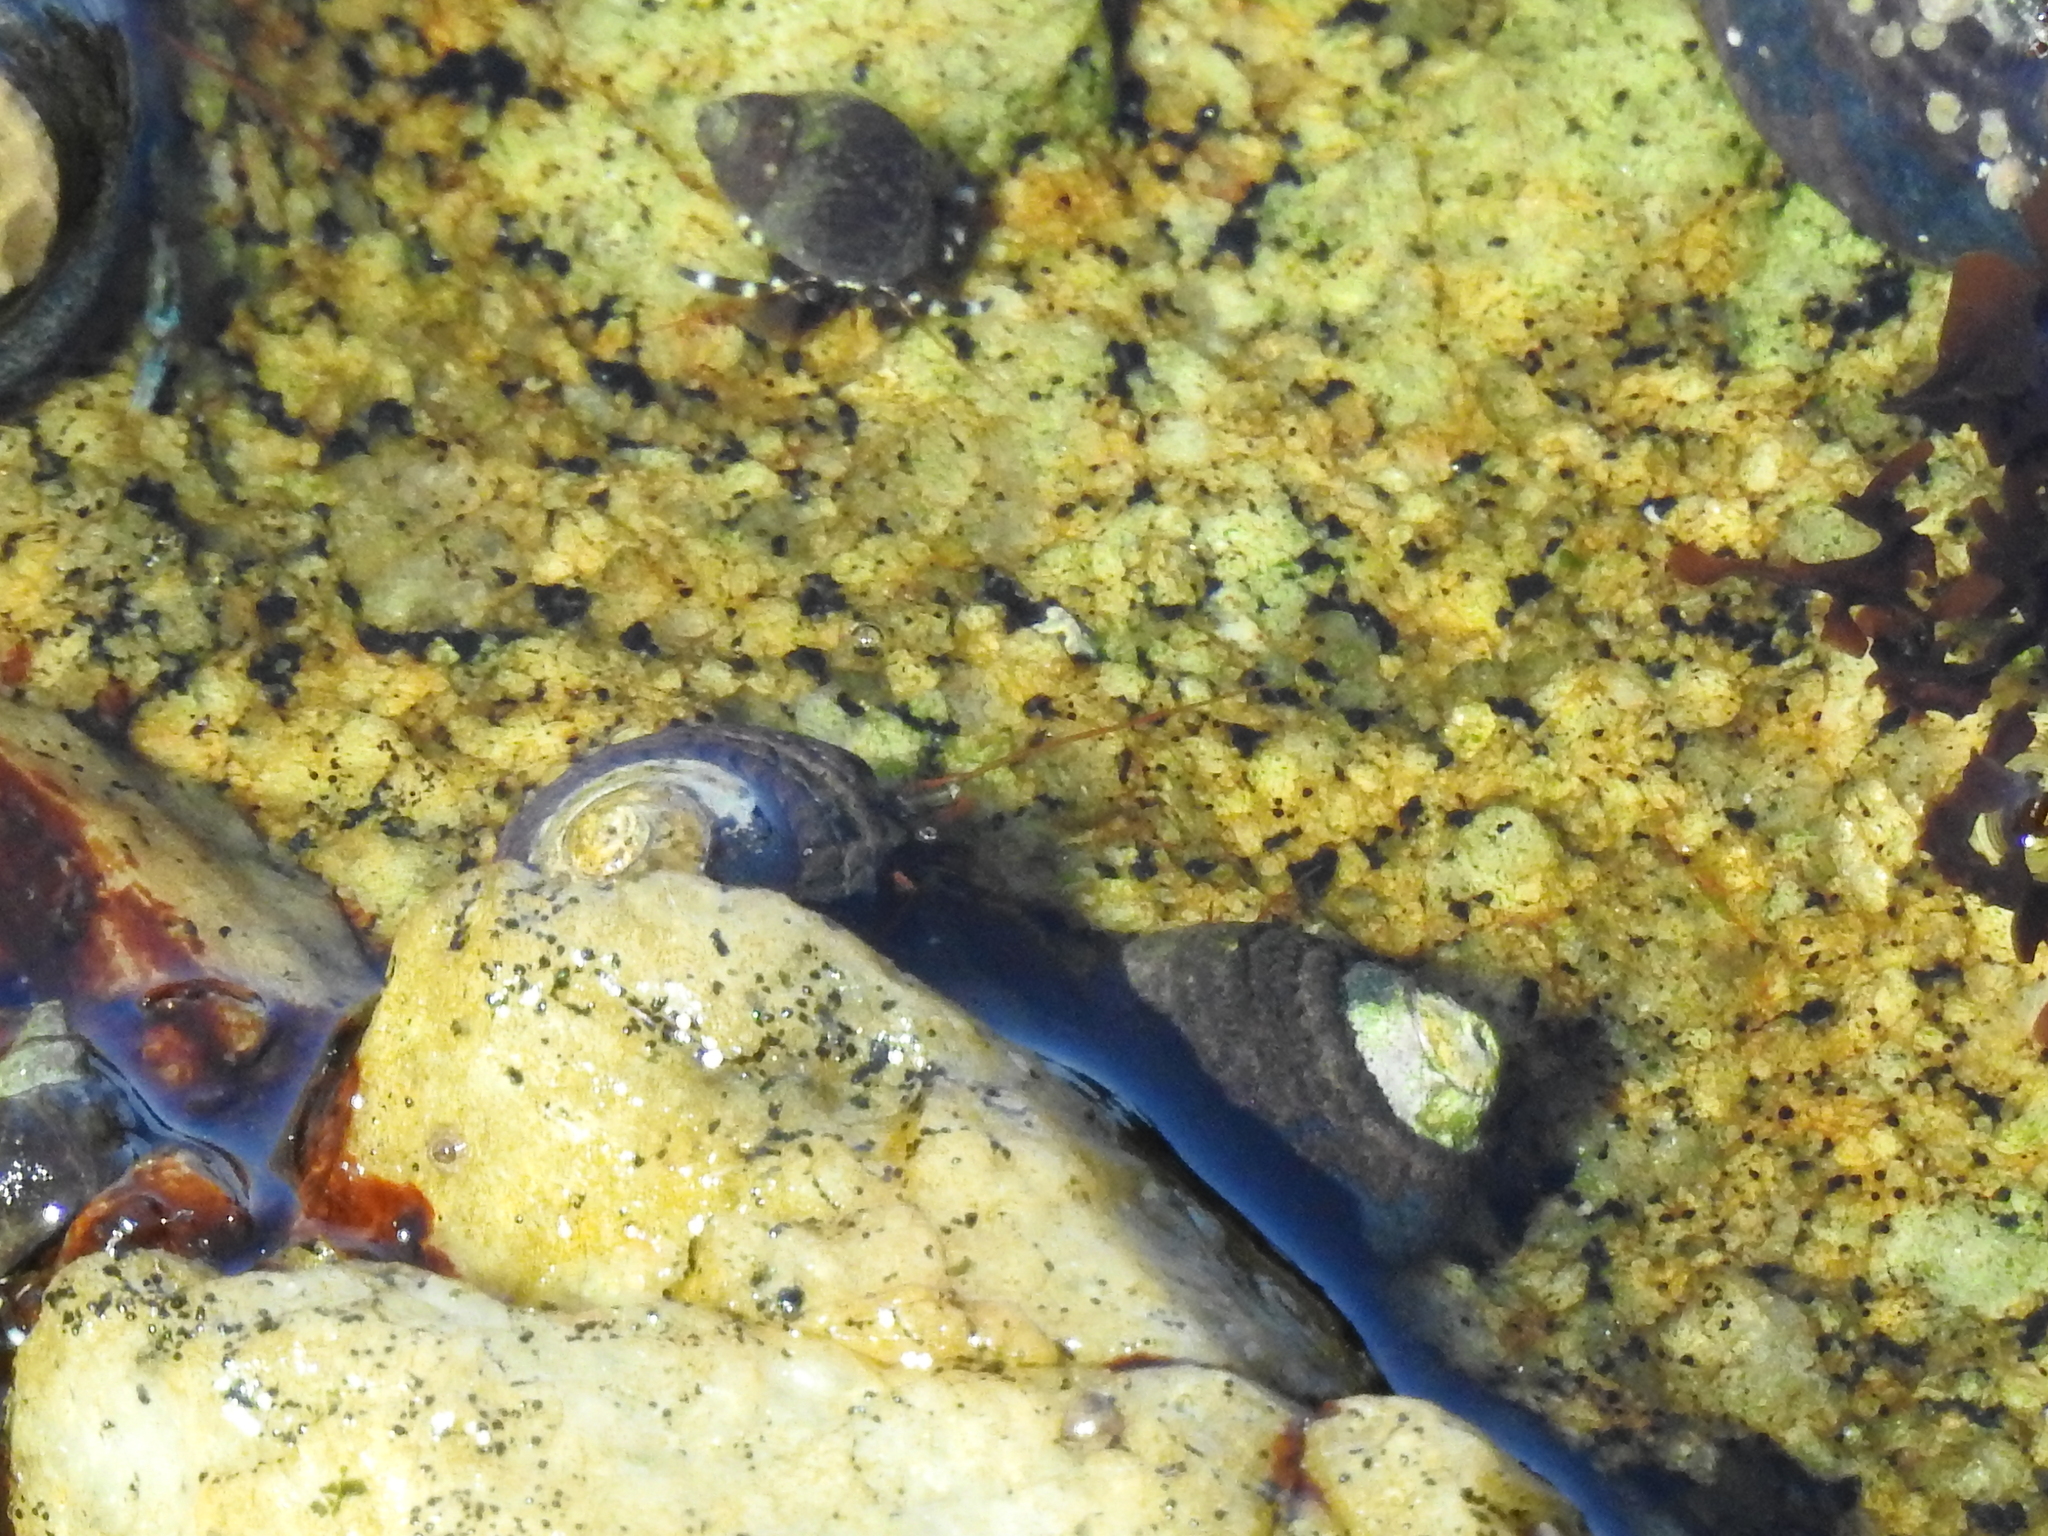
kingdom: Animalia
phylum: Arthropoda
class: Malacostraca
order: Decapoda
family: Paguridae
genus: Pagurus
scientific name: Pagurus samuelis
